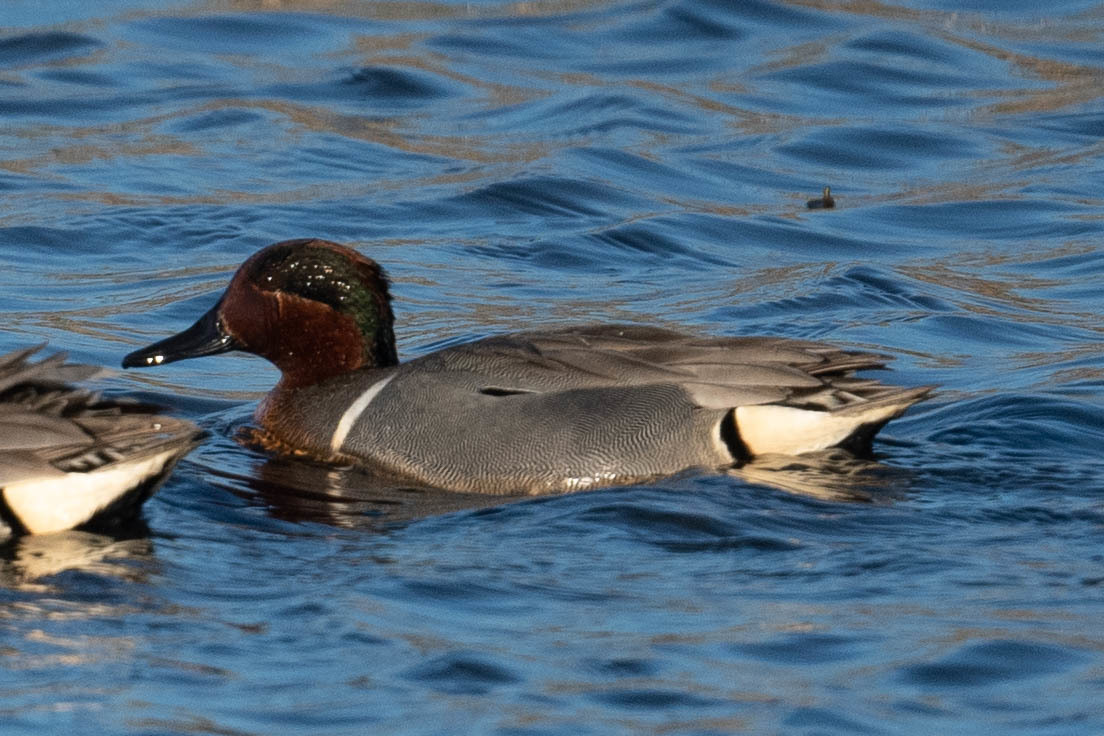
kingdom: Animalia
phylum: Chordata
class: Aves
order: Anseriformes
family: Anatidae
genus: Anas
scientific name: Anas crecca
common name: Eurasian teal
